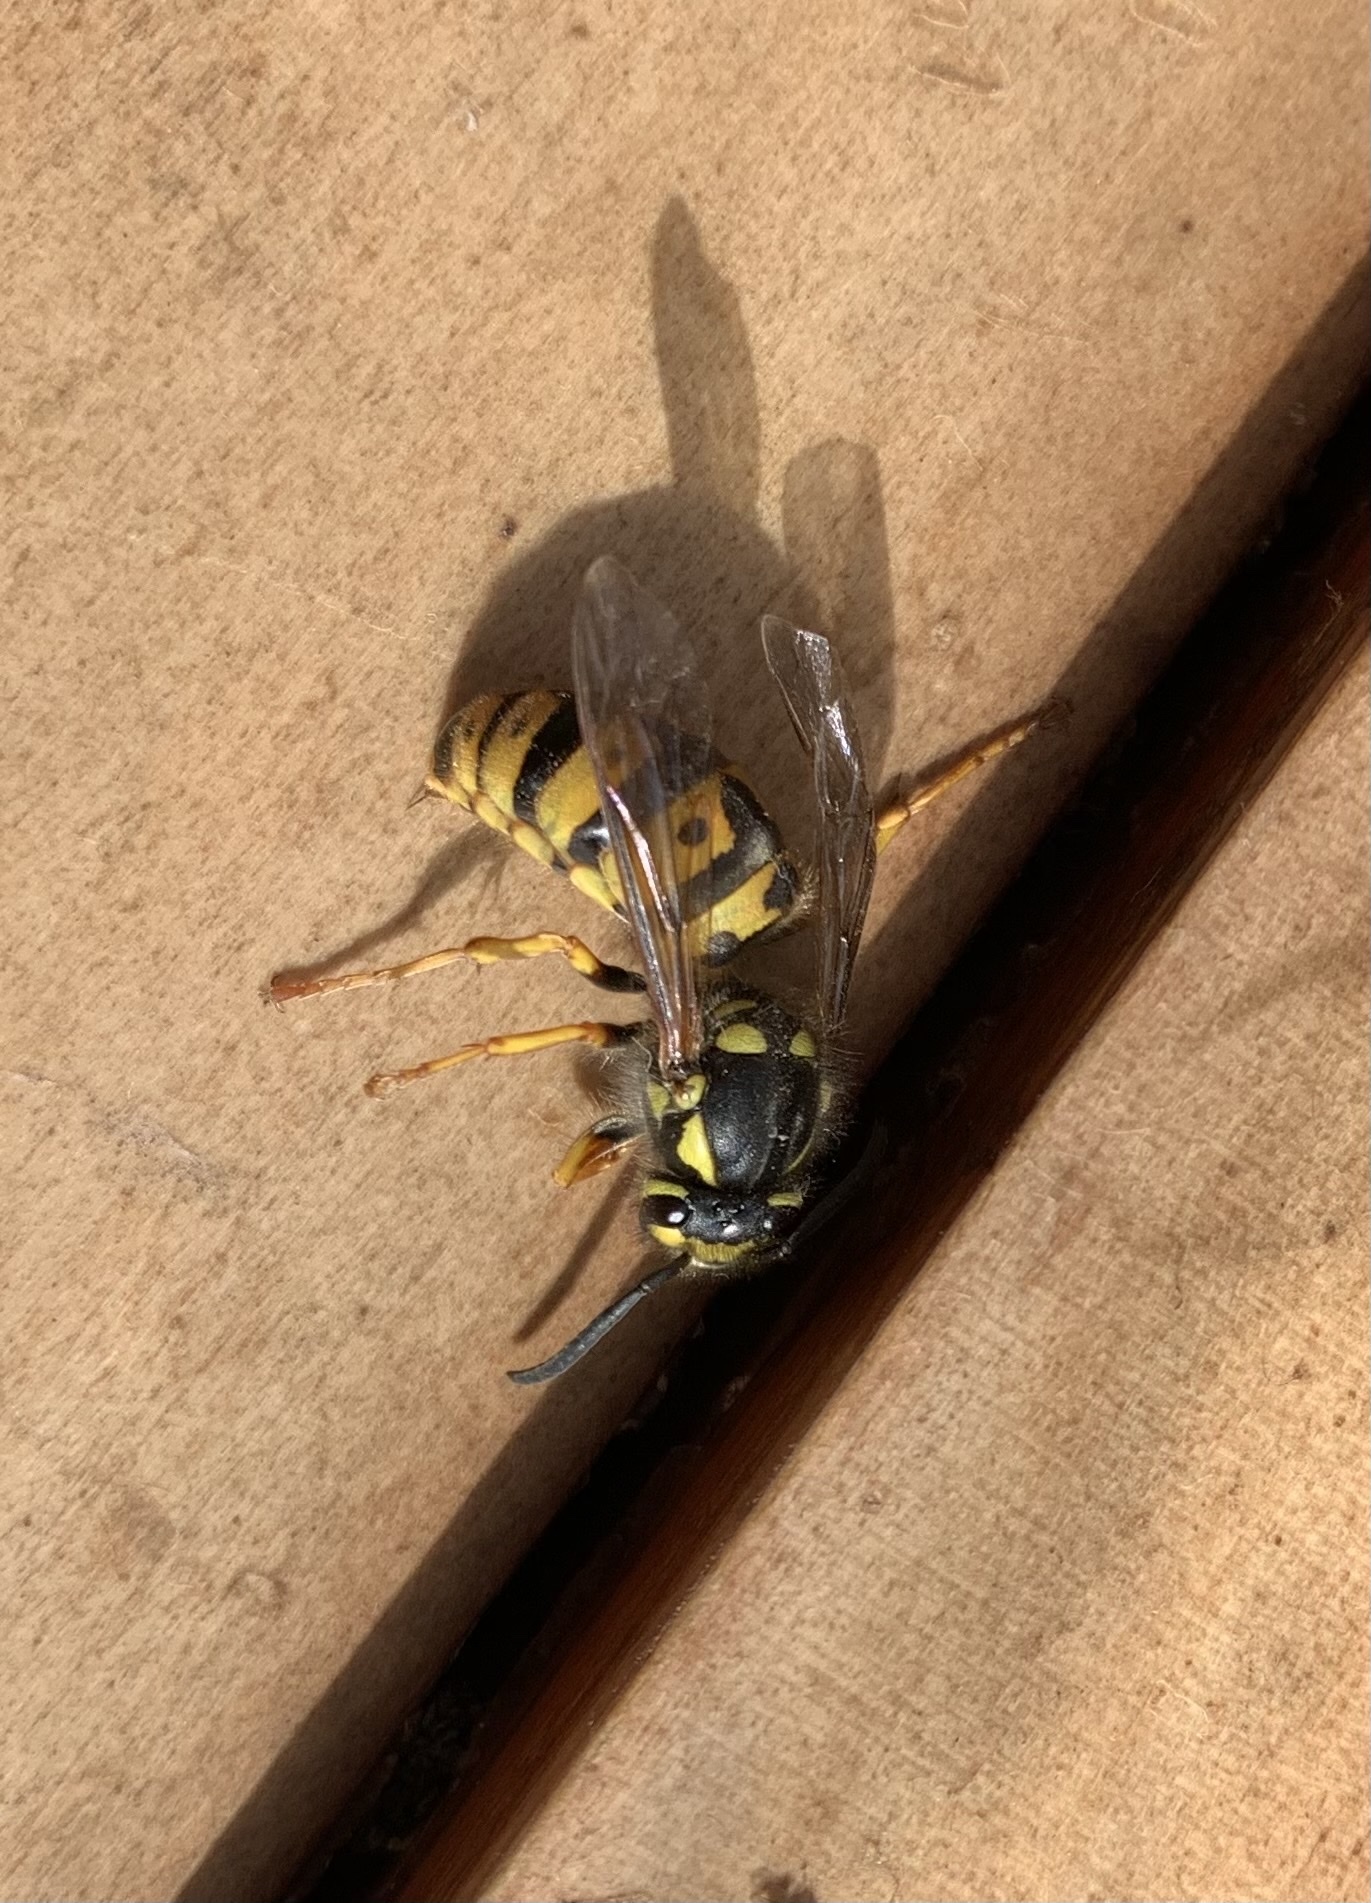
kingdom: Animalia
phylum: Arthropoda
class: Insecta
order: Hymenoptera
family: Vespidae
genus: Vespula
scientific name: Vespula germanica
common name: German wasp
